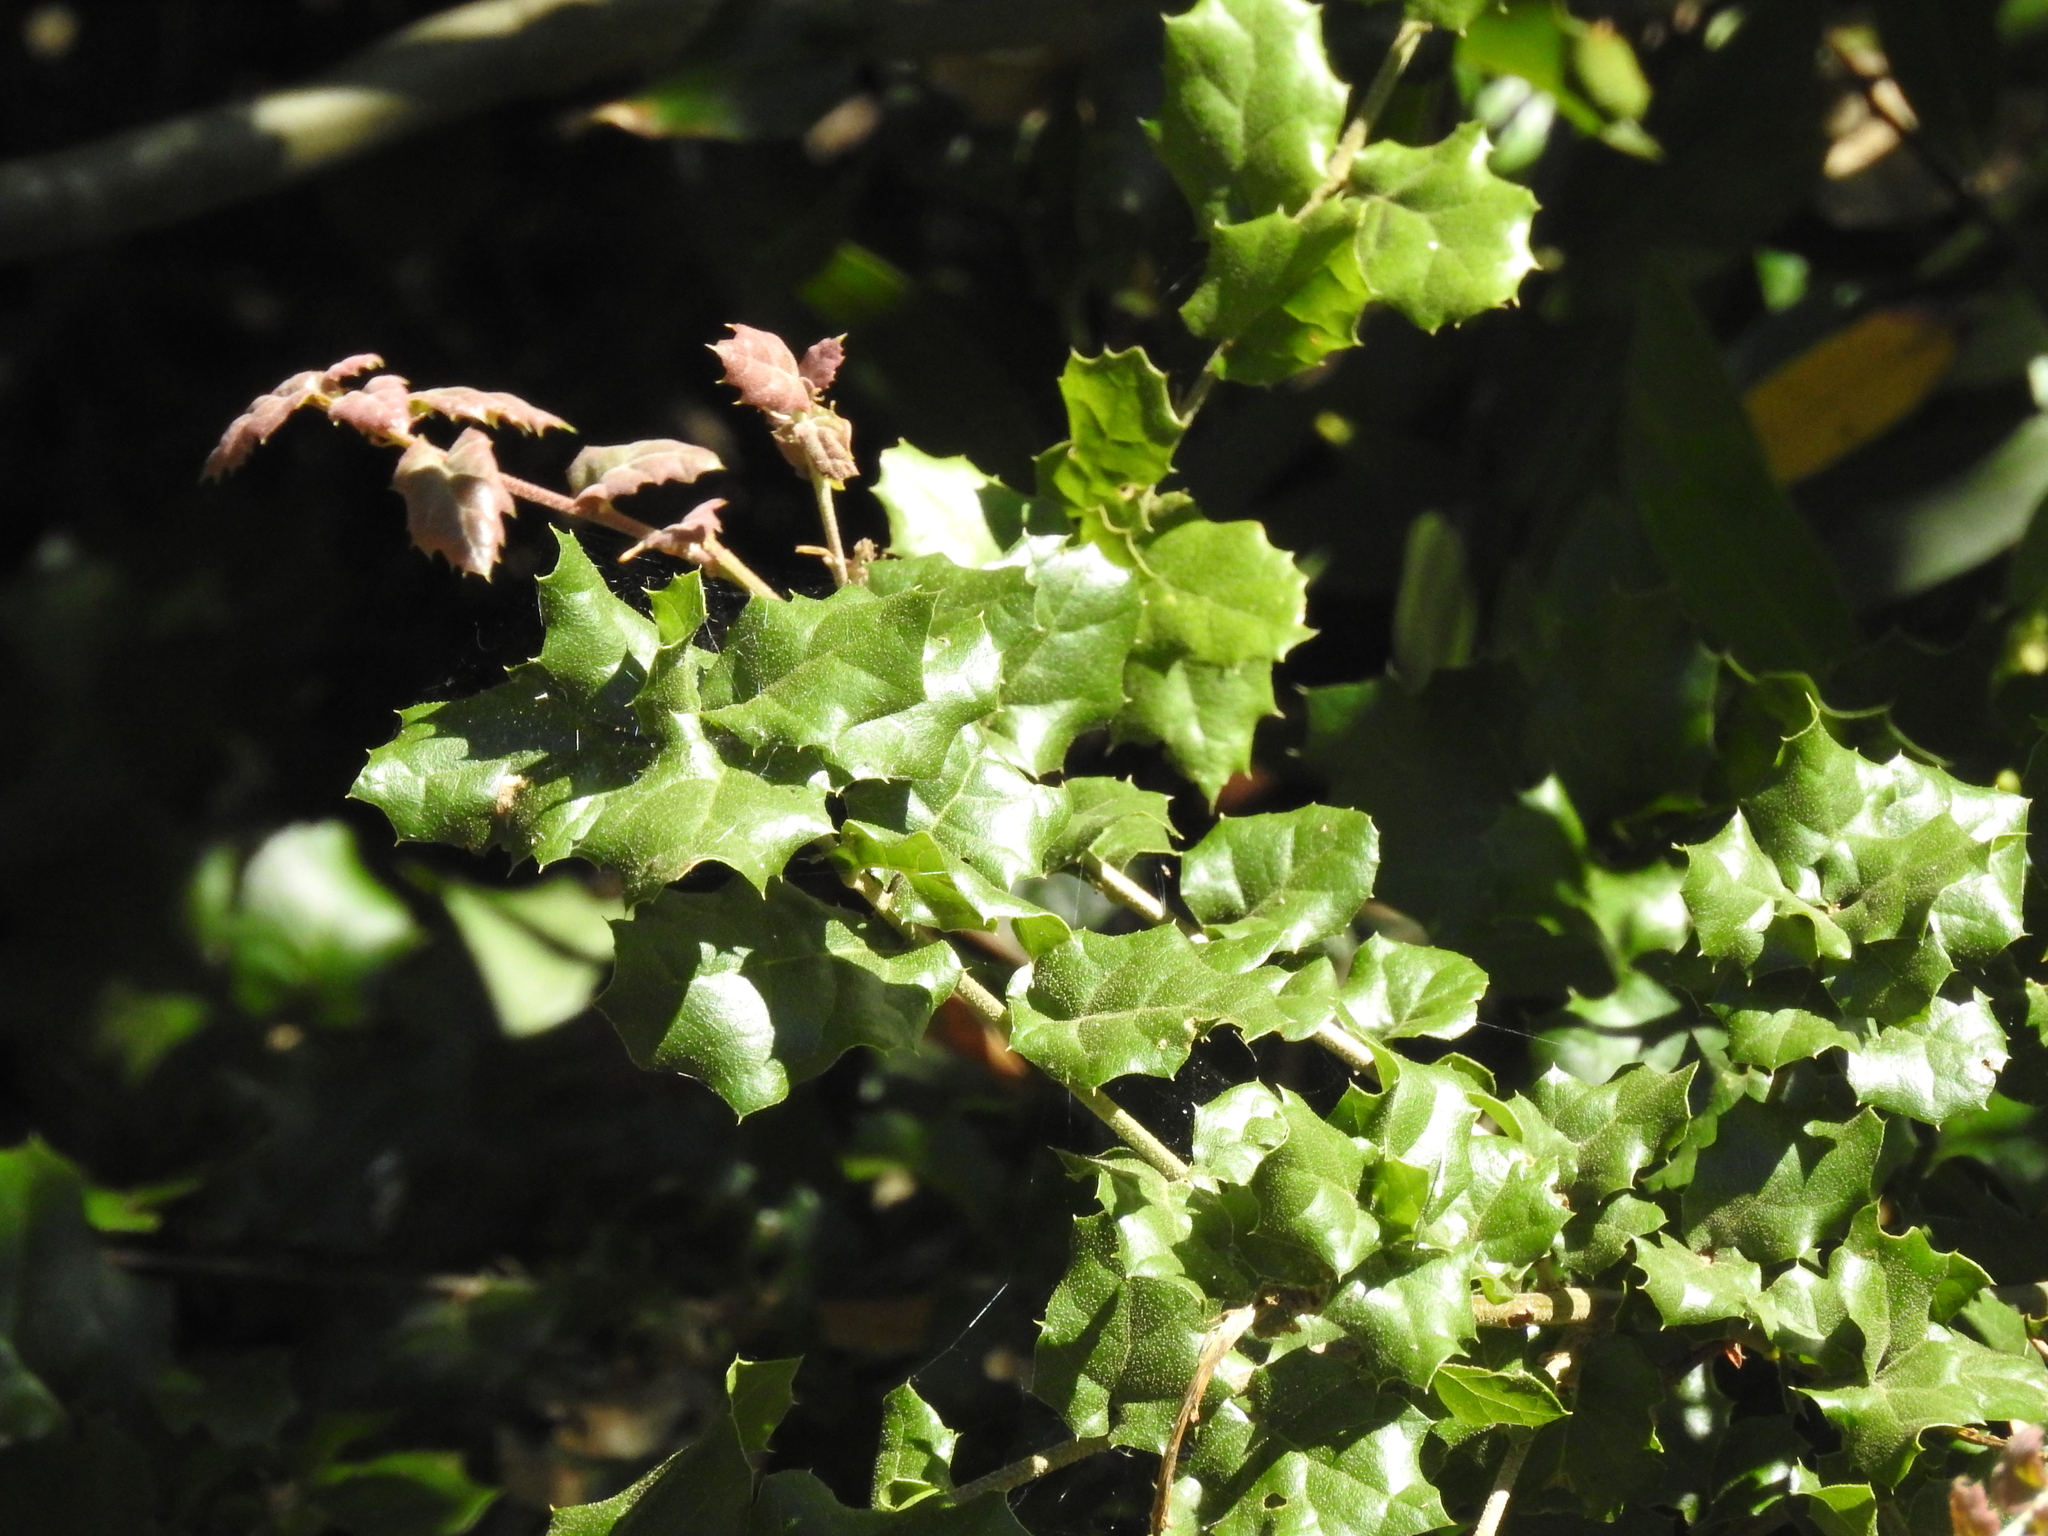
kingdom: Plantae
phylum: Tracheophyta
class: Magnoliopsida
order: Fagales
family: Fagaceae
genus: Quercus
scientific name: Quercus agrifolia
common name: California live oak
